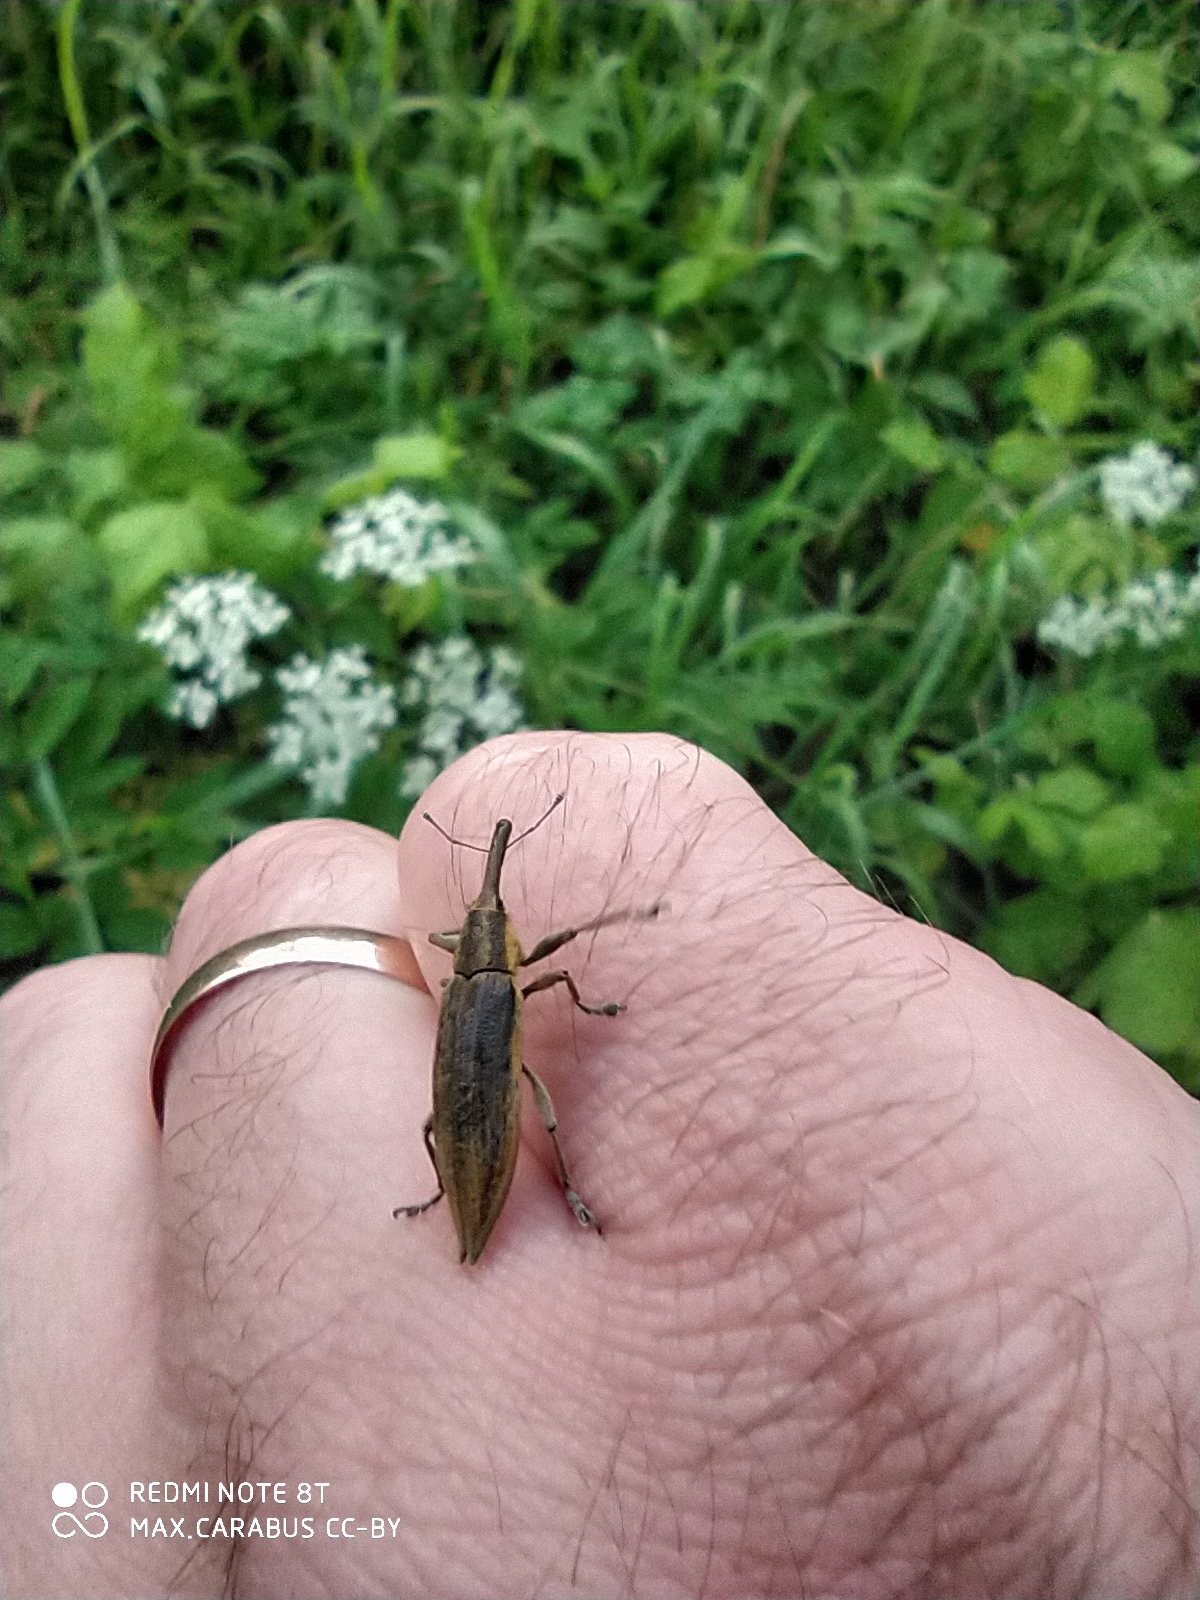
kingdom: Animalia
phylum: Arthropoda
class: Insecta
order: Coleoptera
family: Curculionidae
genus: Lixus
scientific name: Lixus iridis
